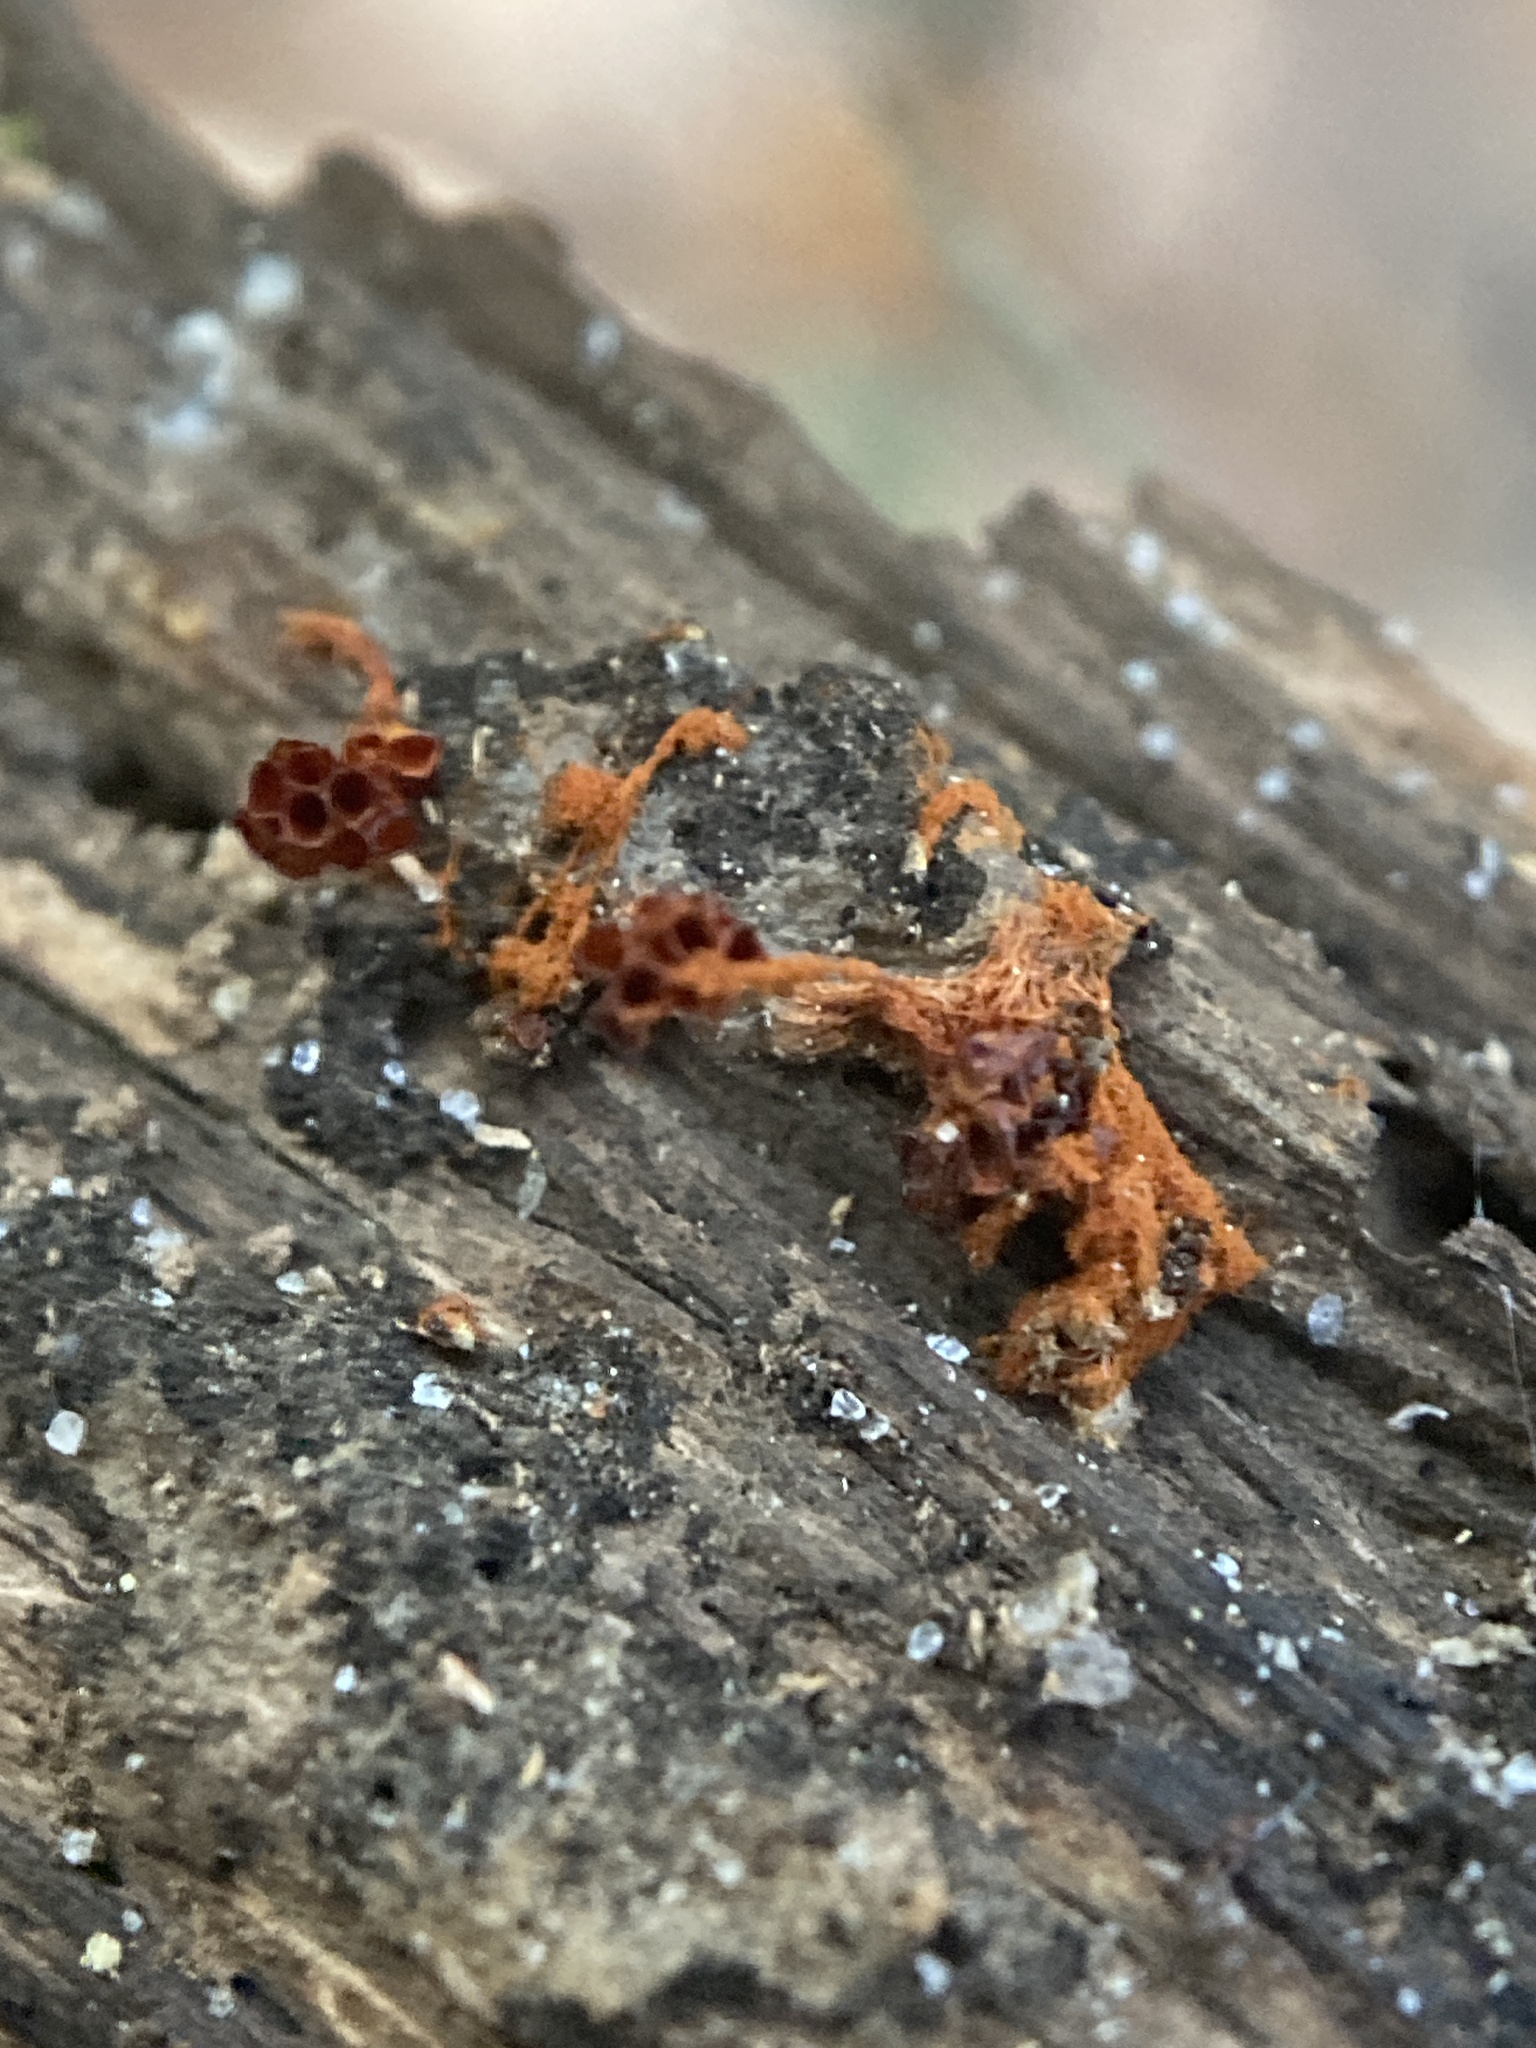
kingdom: Protozoa
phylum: Mycetozoa
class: Myxomycetes
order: Trichiales
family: Trichiaceae
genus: Metatrichia
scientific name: Metatrichia vesparia
